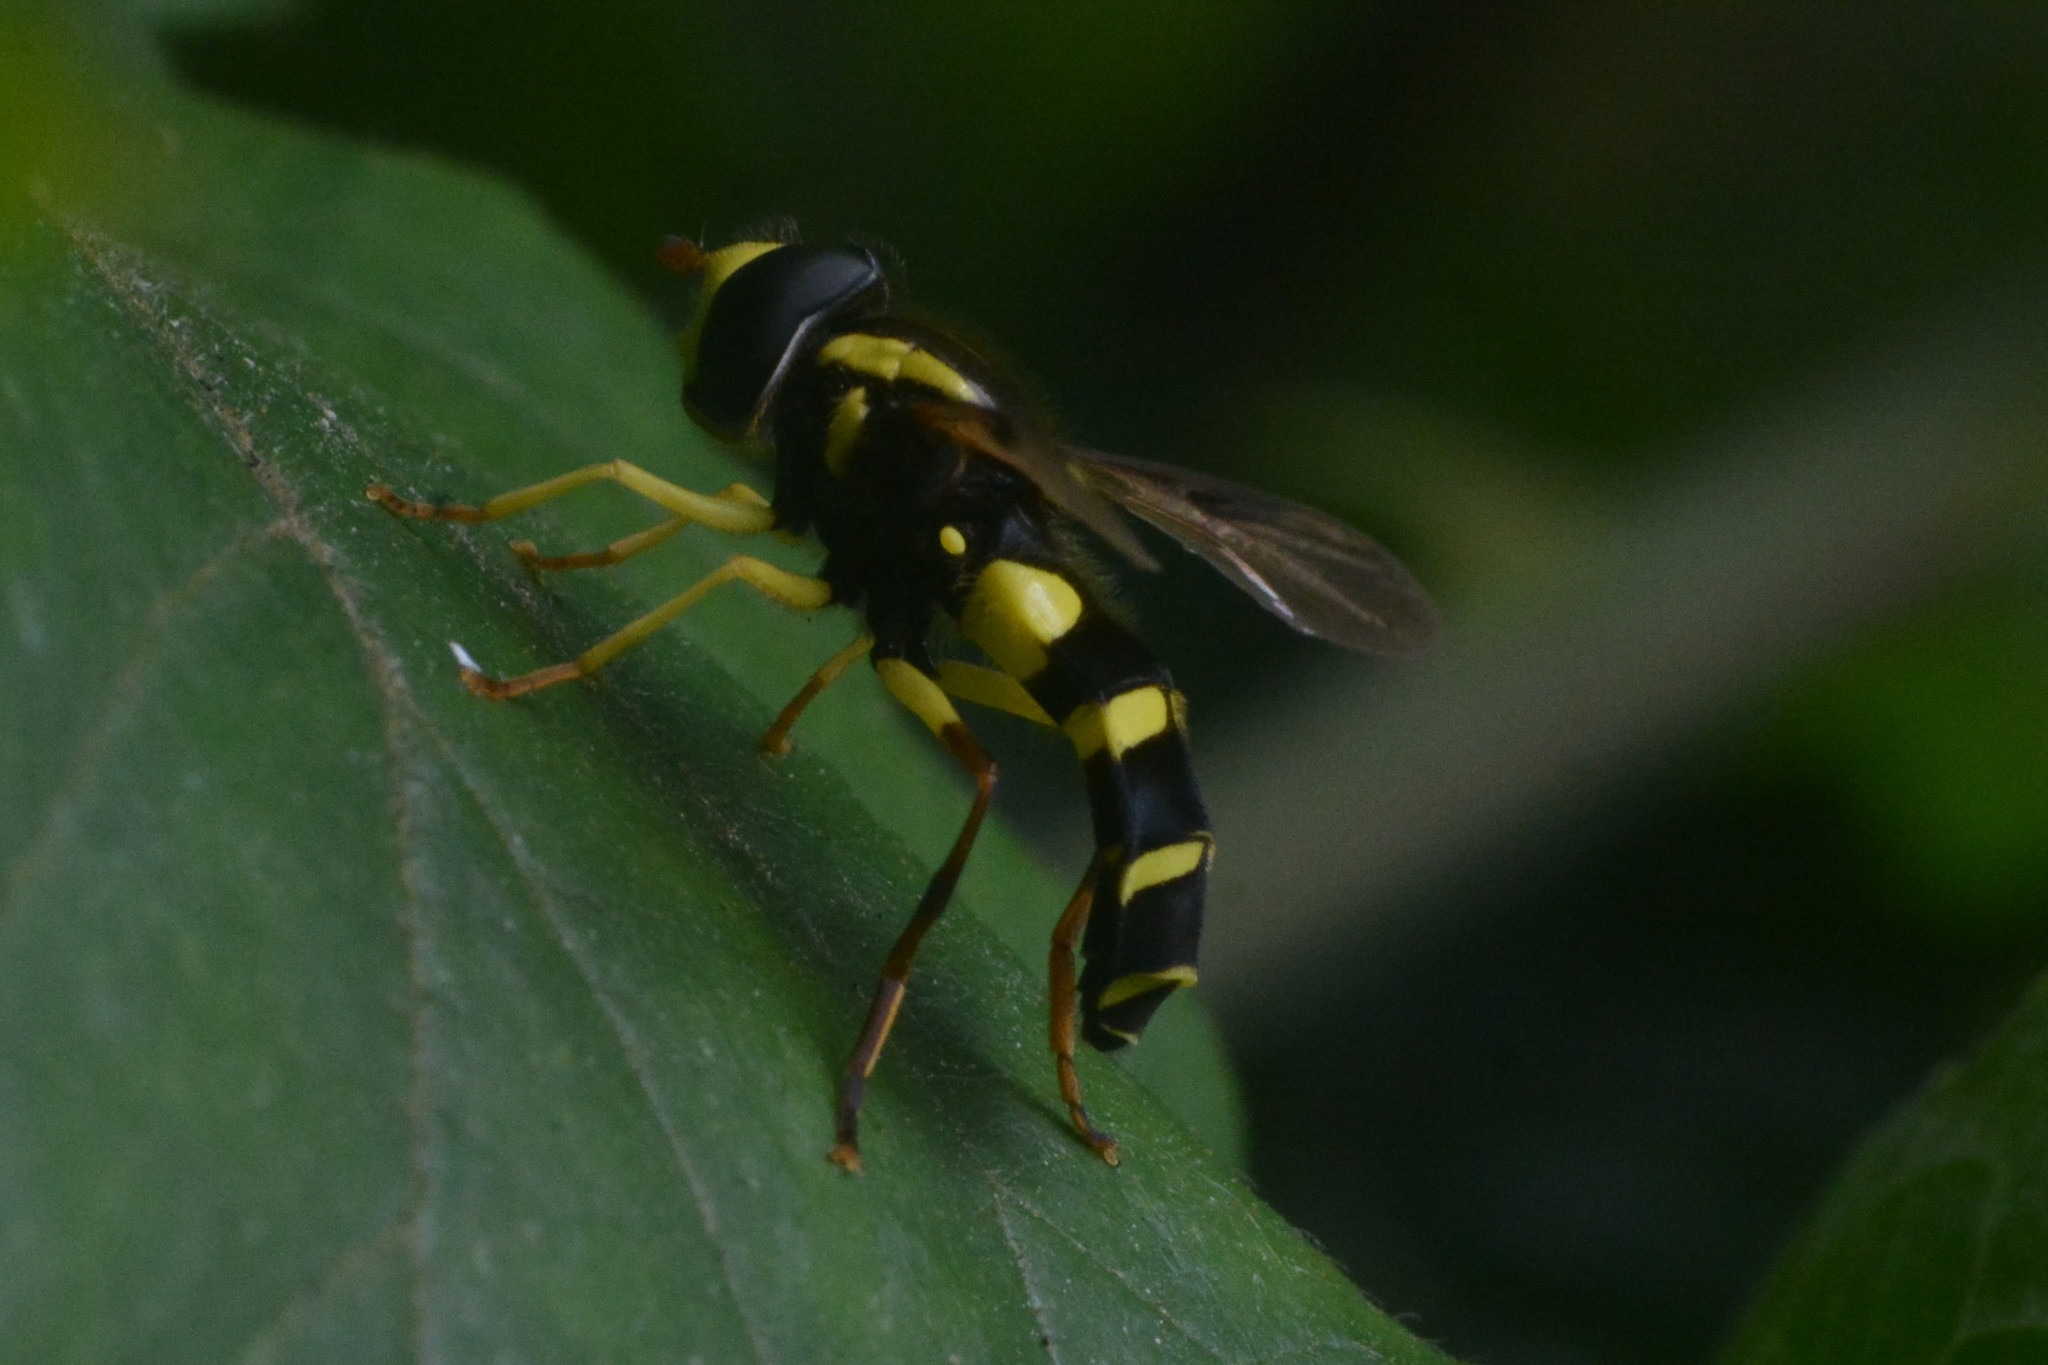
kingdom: Animalia
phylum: Arthropoda
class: Insecta
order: Diptera
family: Syrphidae
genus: Philhelius
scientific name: Philhelius pedissequum
